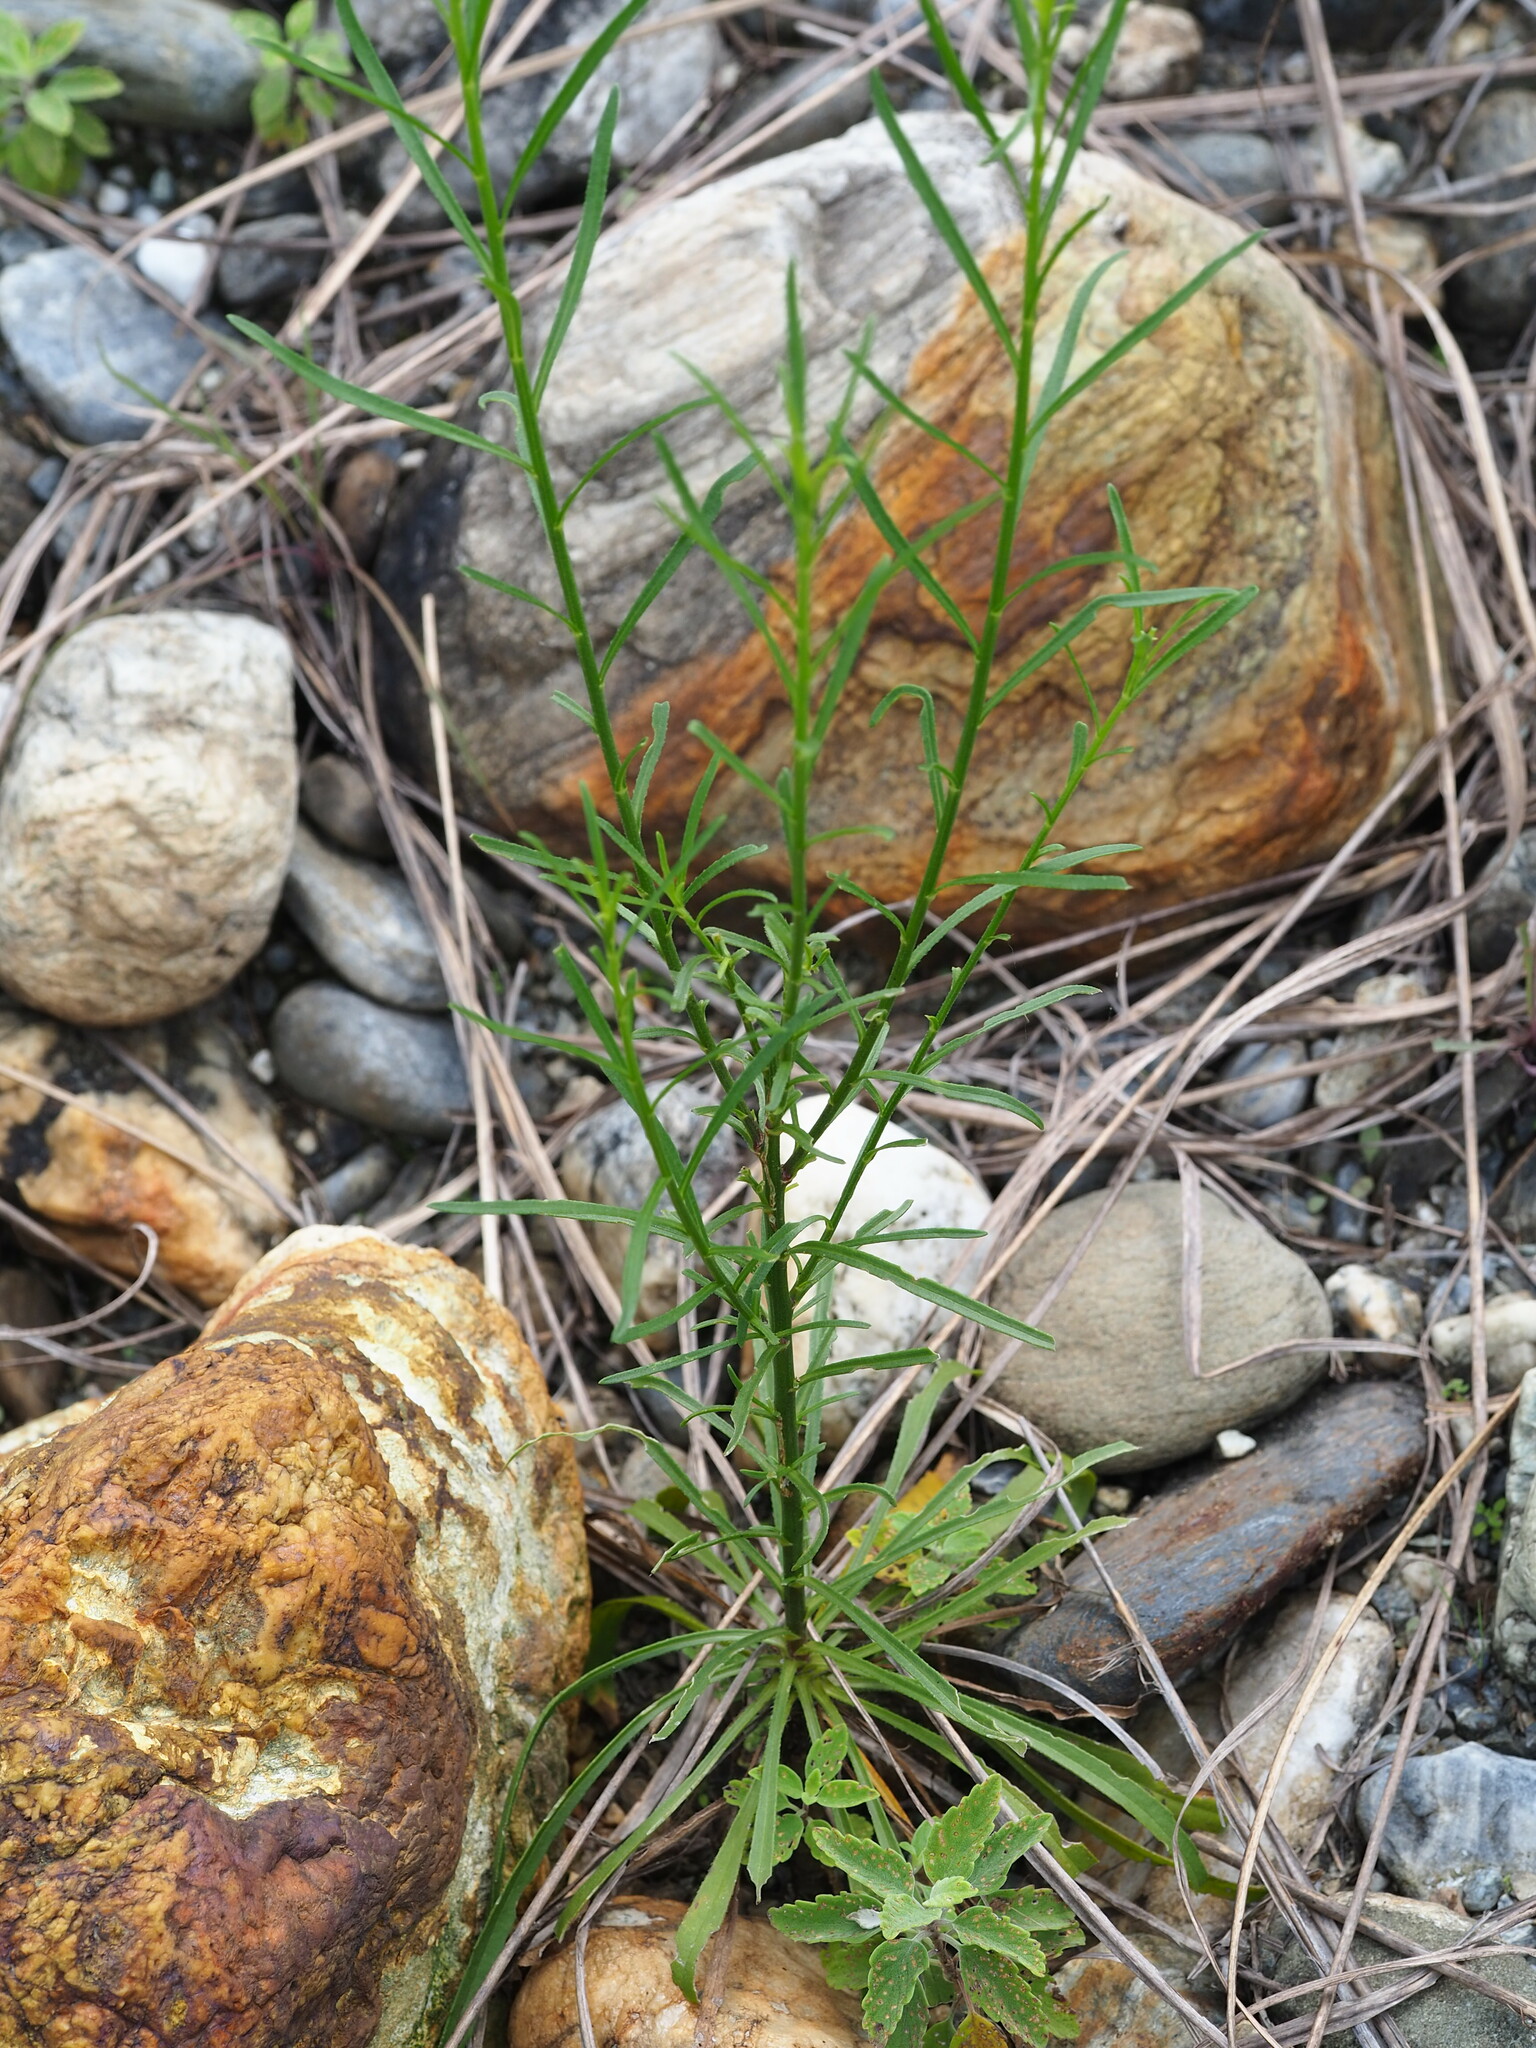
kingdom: Plantae
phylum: Tracheophyta
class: Magnoliopsida
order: Asterales
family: Asteraceae
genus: Heteropappus
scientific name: Heteropappus altaicus
